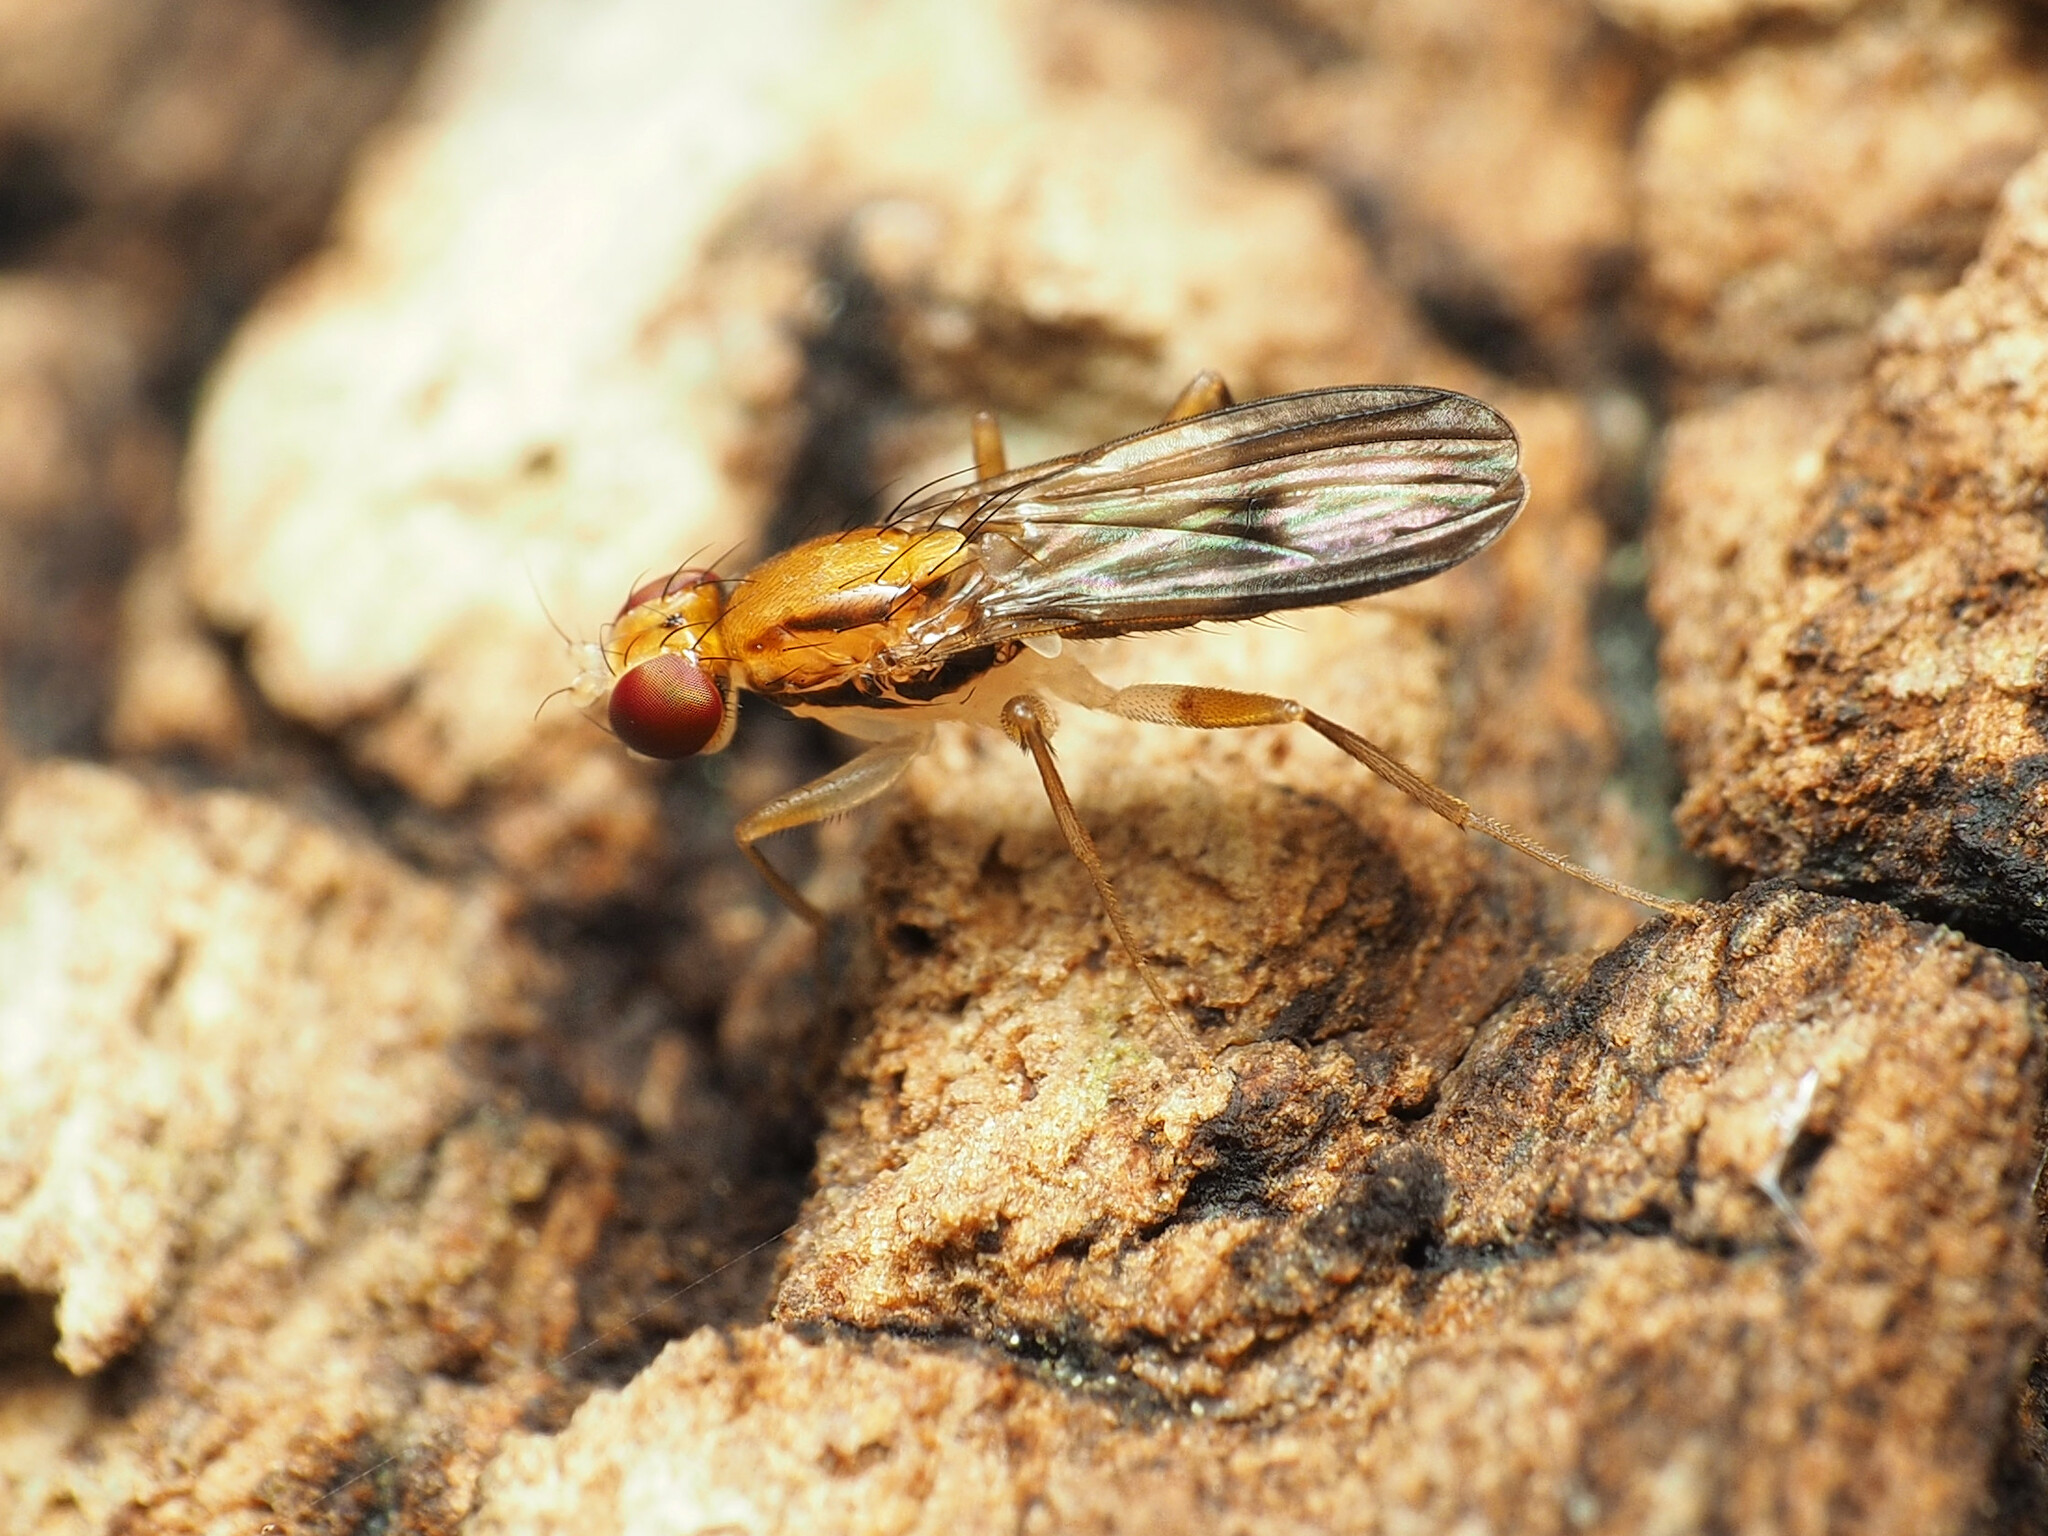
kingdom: Animalia
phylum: Arthropoda
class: Insecta
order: Diptera
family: Clusiidae
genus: Clusia
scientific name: Clusia czernyi
